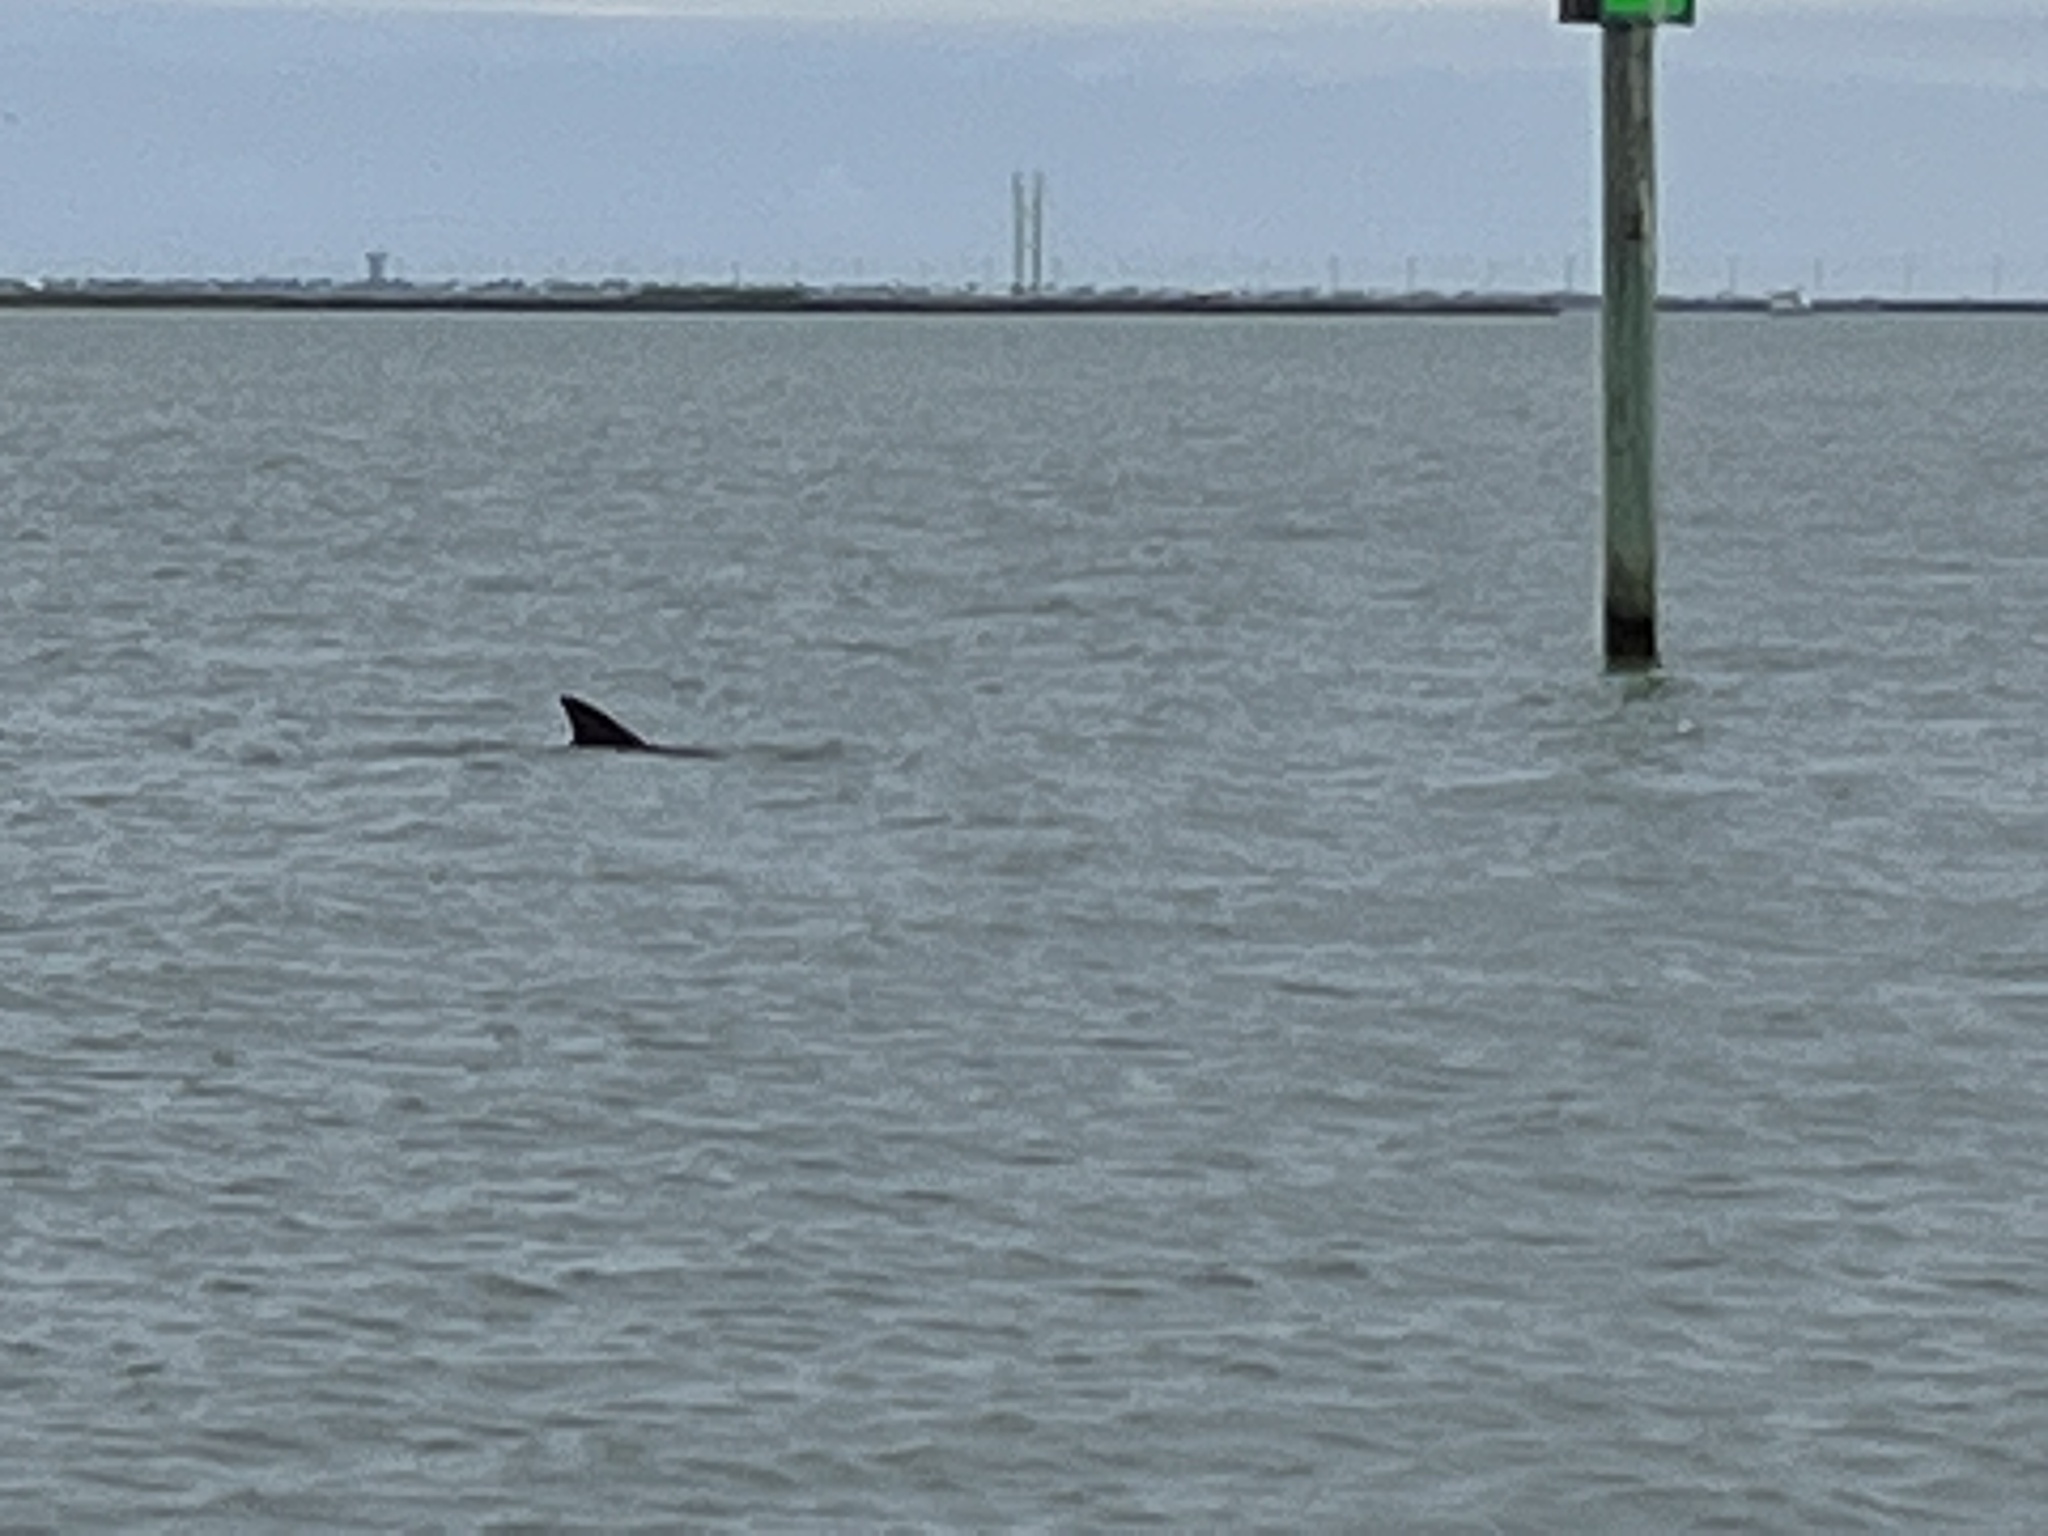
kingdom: Animalia
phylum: Chordata
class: Mammalia
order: Cetacea
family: Delphinidae
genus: Tursiops
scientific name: Tursiops truncatus
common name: Bottlenose dolphin
